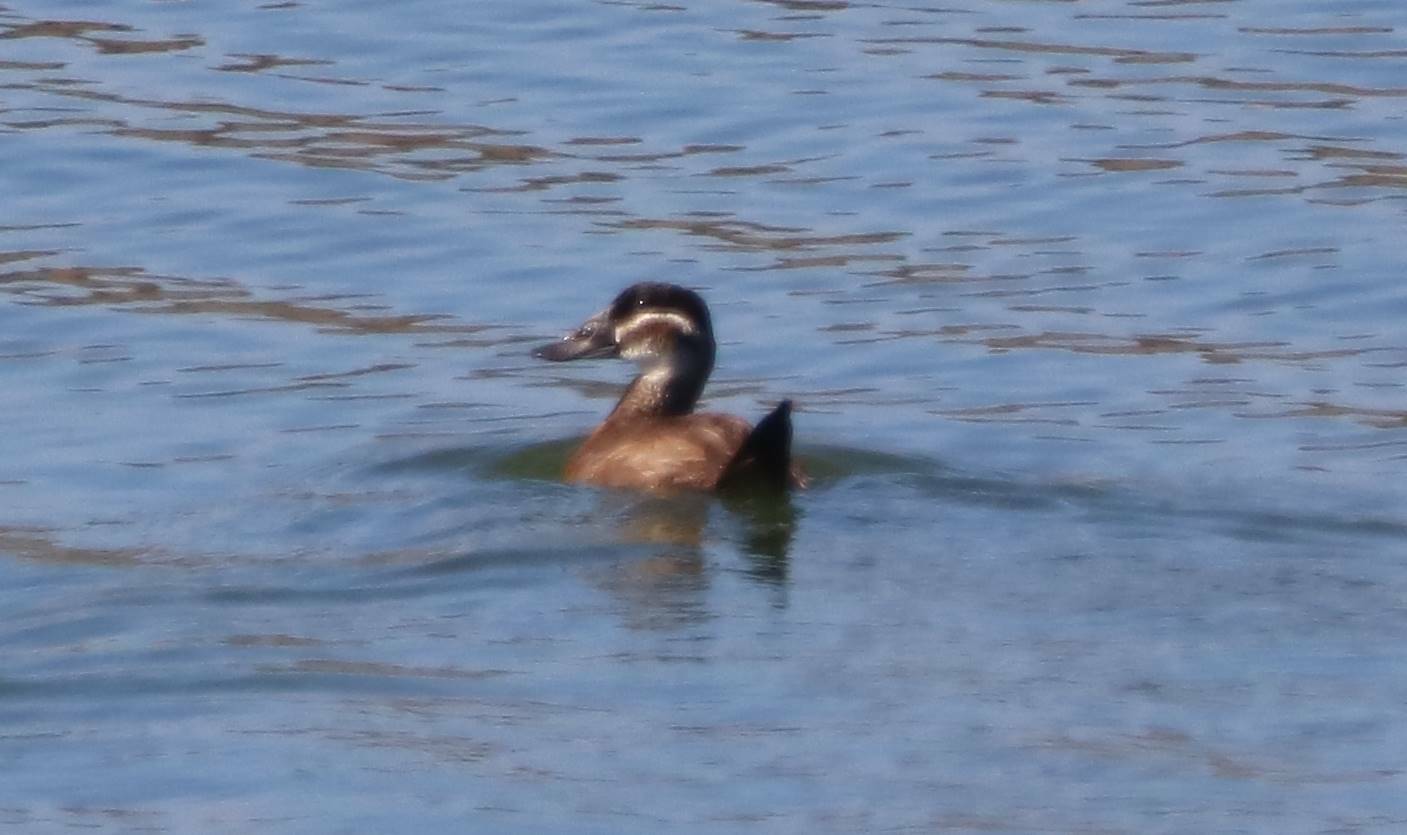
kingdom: Animalia
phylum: Chordata
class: Aves
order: Anseriformes
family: Anatidae
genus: Oxyura
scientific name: Oxyura leucocephala
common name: White-headed duck
